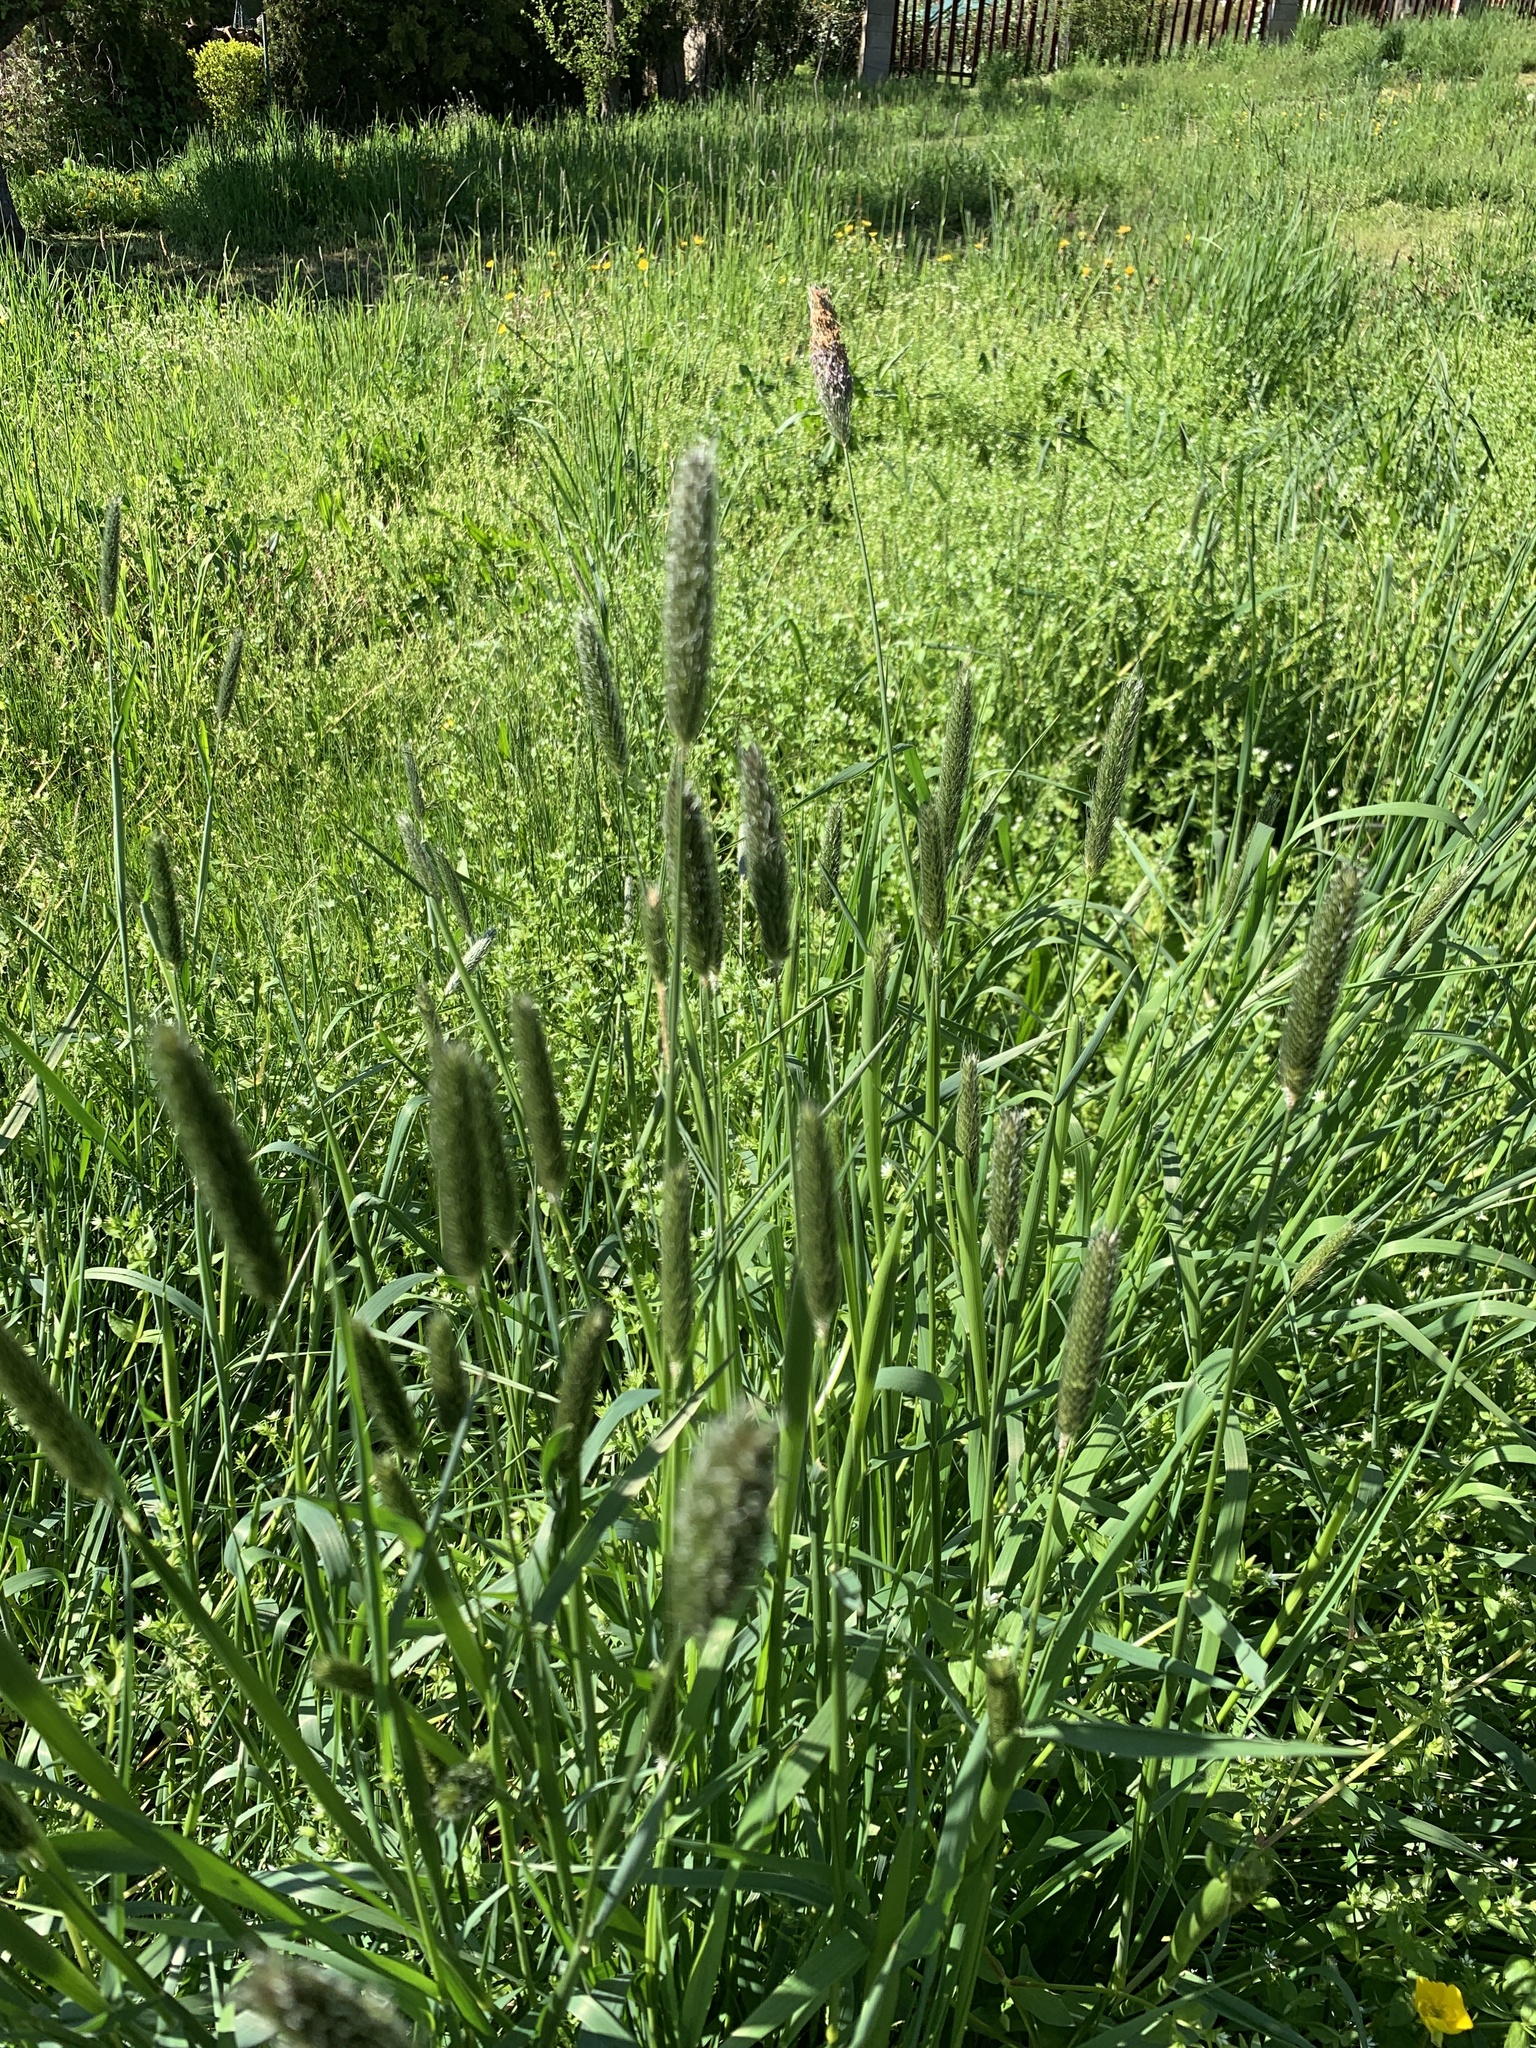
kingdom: Plantae
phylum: Tracheophyta
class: Liliopsida
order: Poales
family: Poaceae
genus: Alopecurus
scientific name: Alopecurus pratensis
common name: Meadow foxtail
